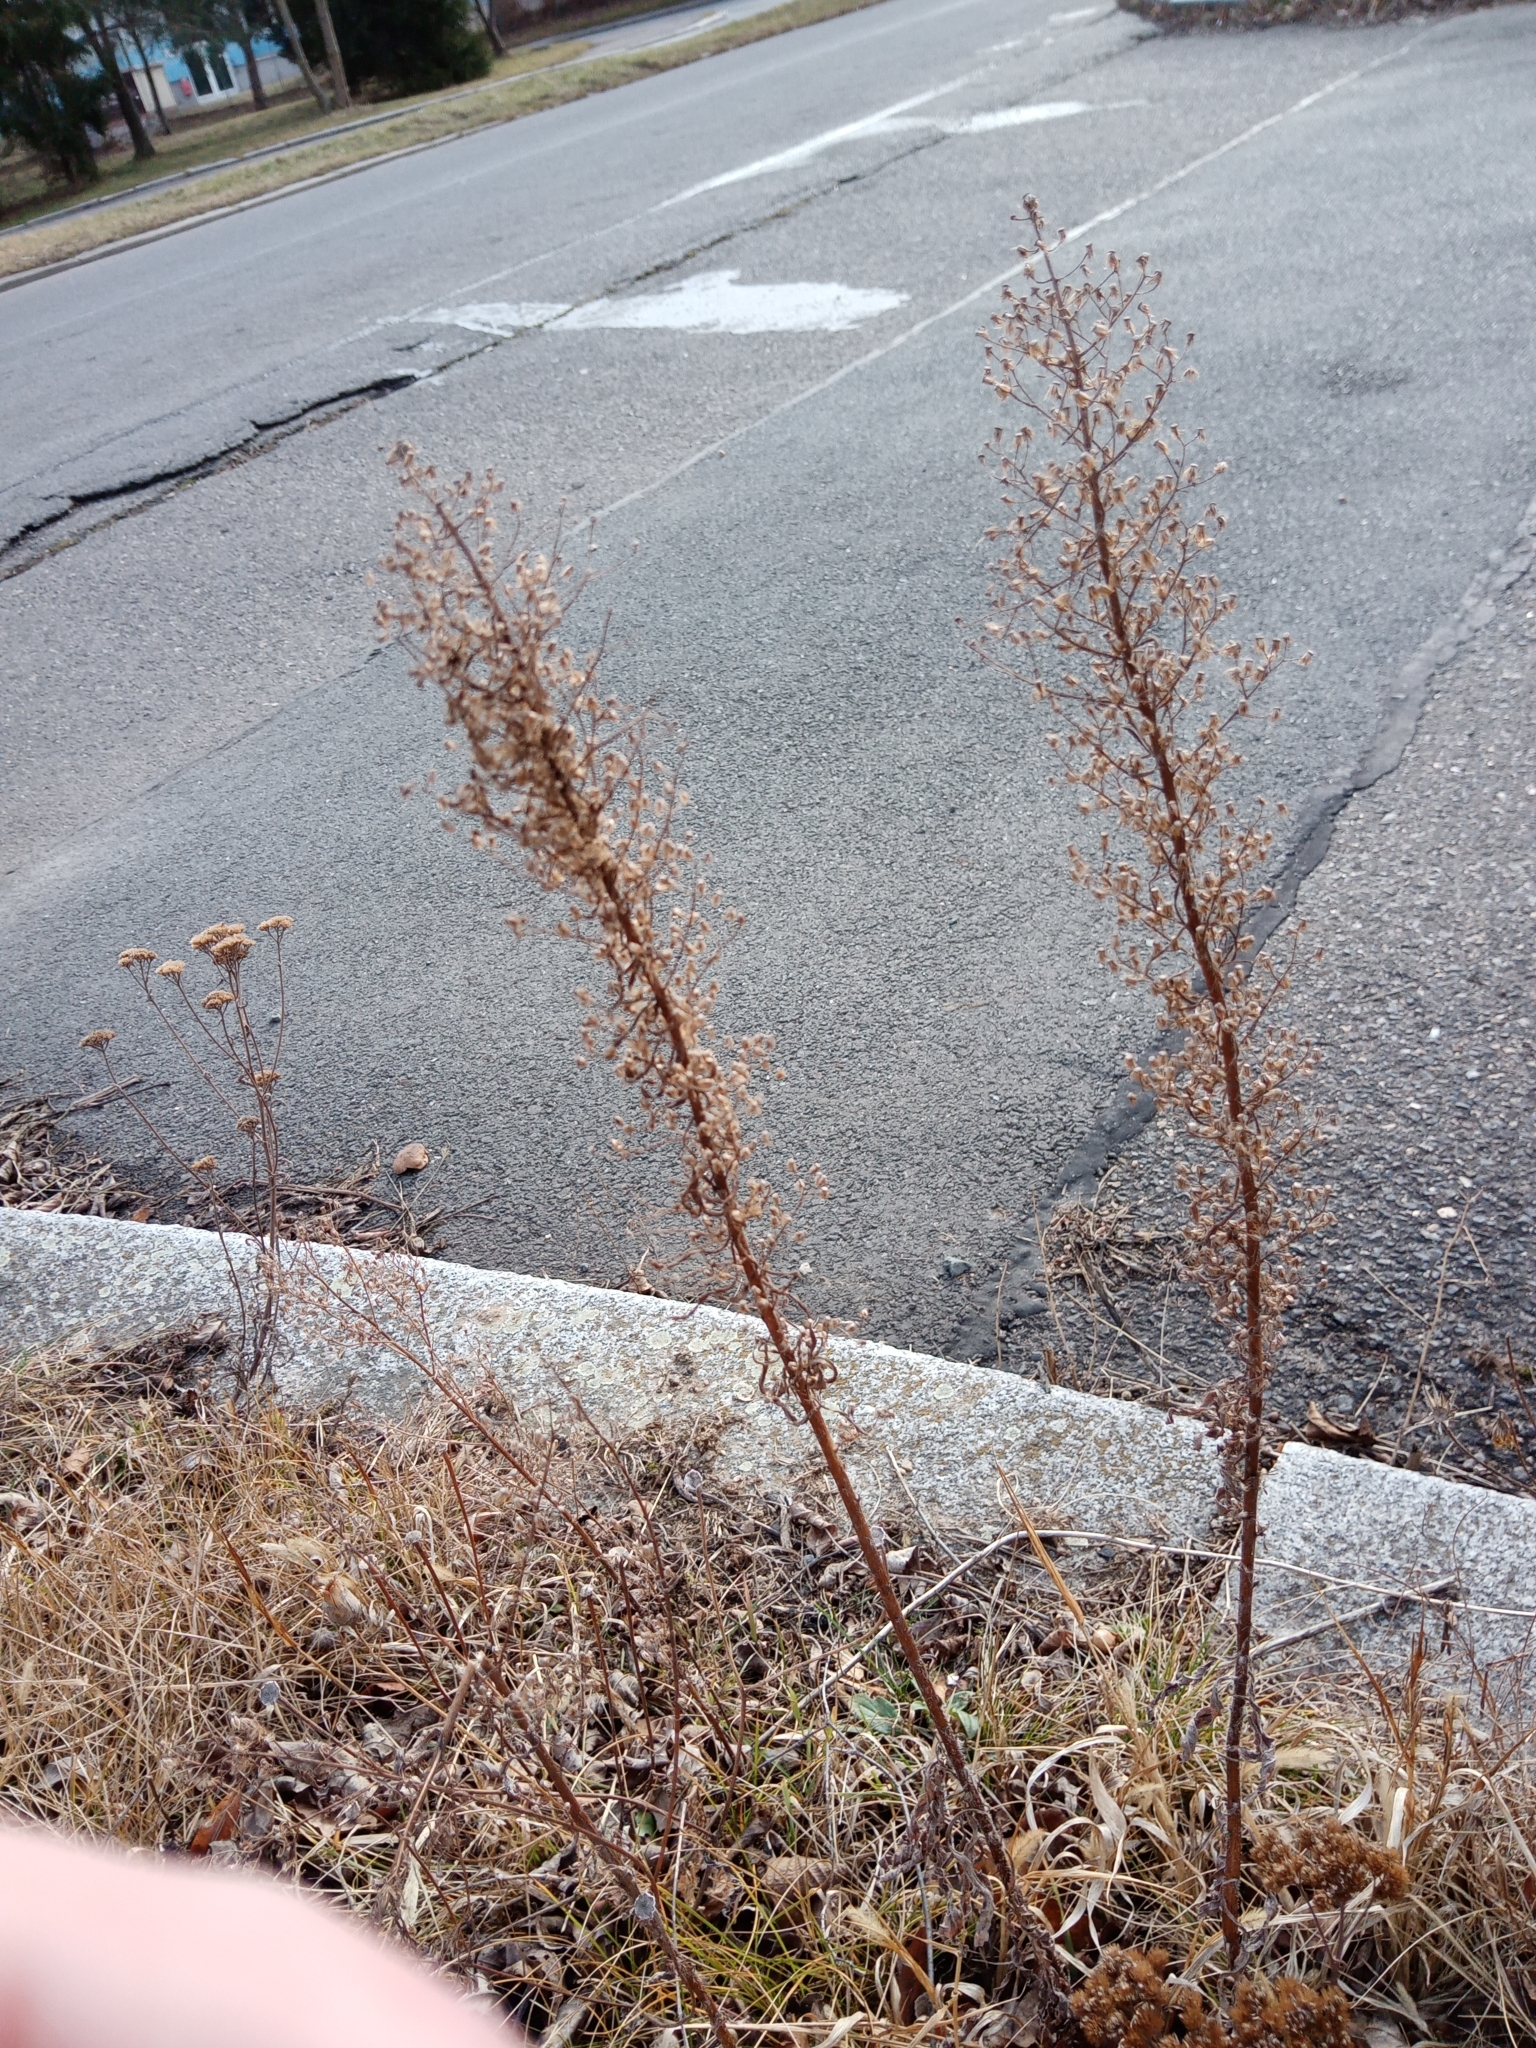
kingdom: Plantae
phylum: Tracheophyta
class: Magnoliopsida
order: Asterales
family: Asteraceae
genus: Erigeron
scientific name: Erigeron canadensis
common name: Canadian fleabane
